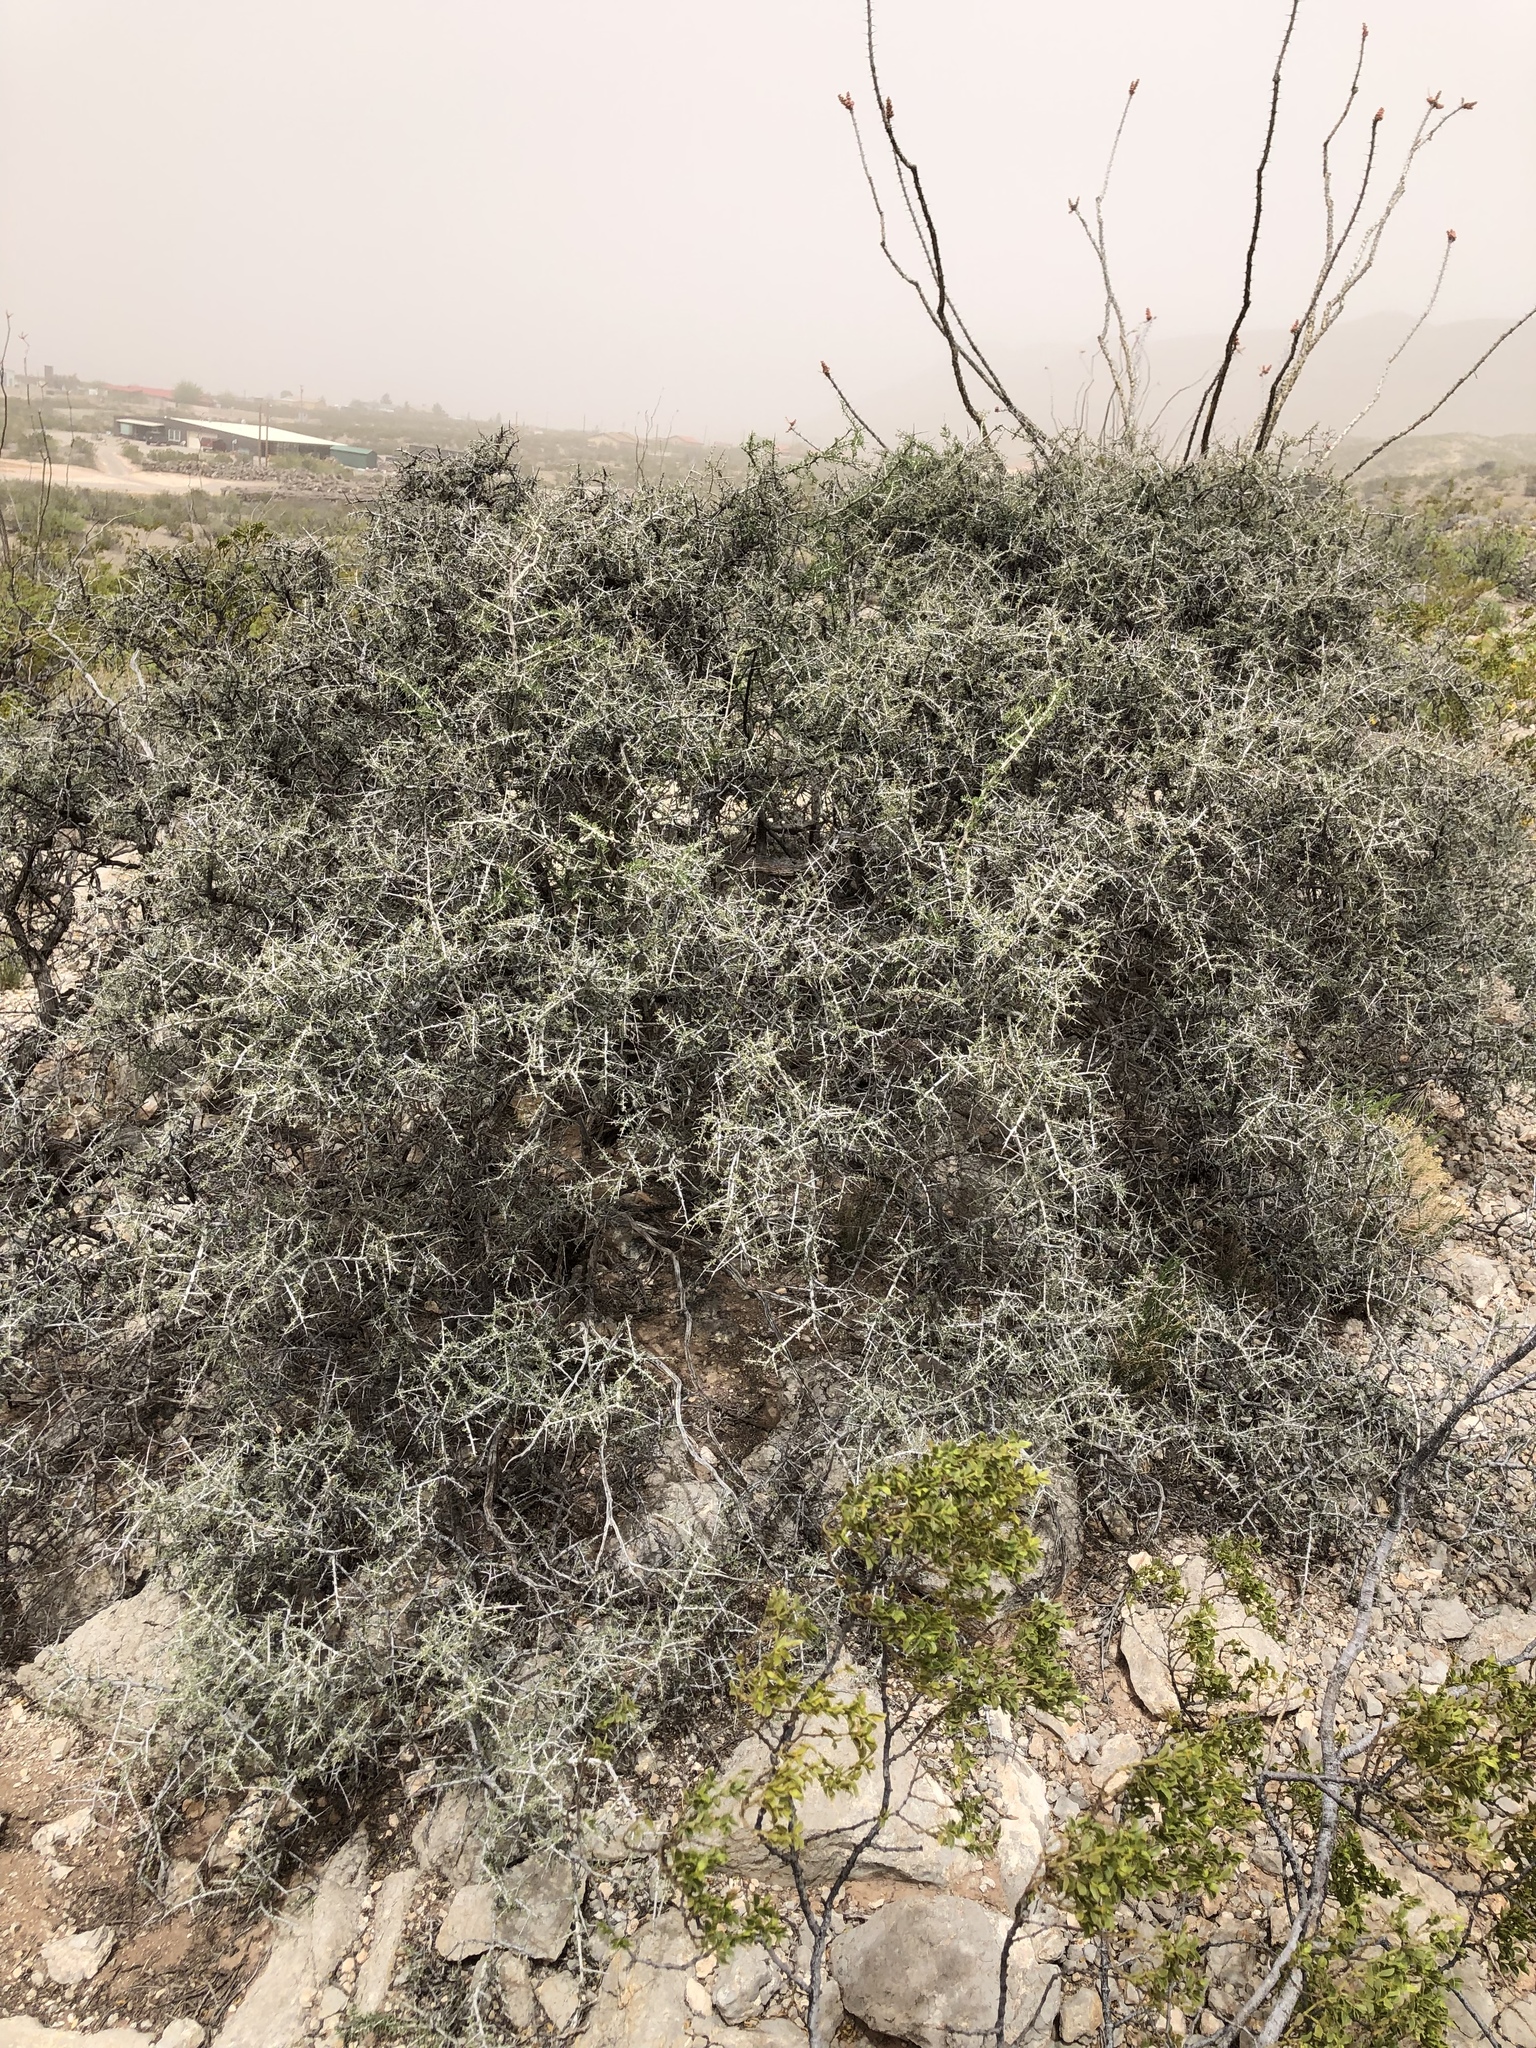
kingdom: Plantae
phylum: Tracheophyta
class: Magnoliopsida
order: Rosales
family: Rhamnaceae
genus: Condalia
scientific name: Condalia warnockii
